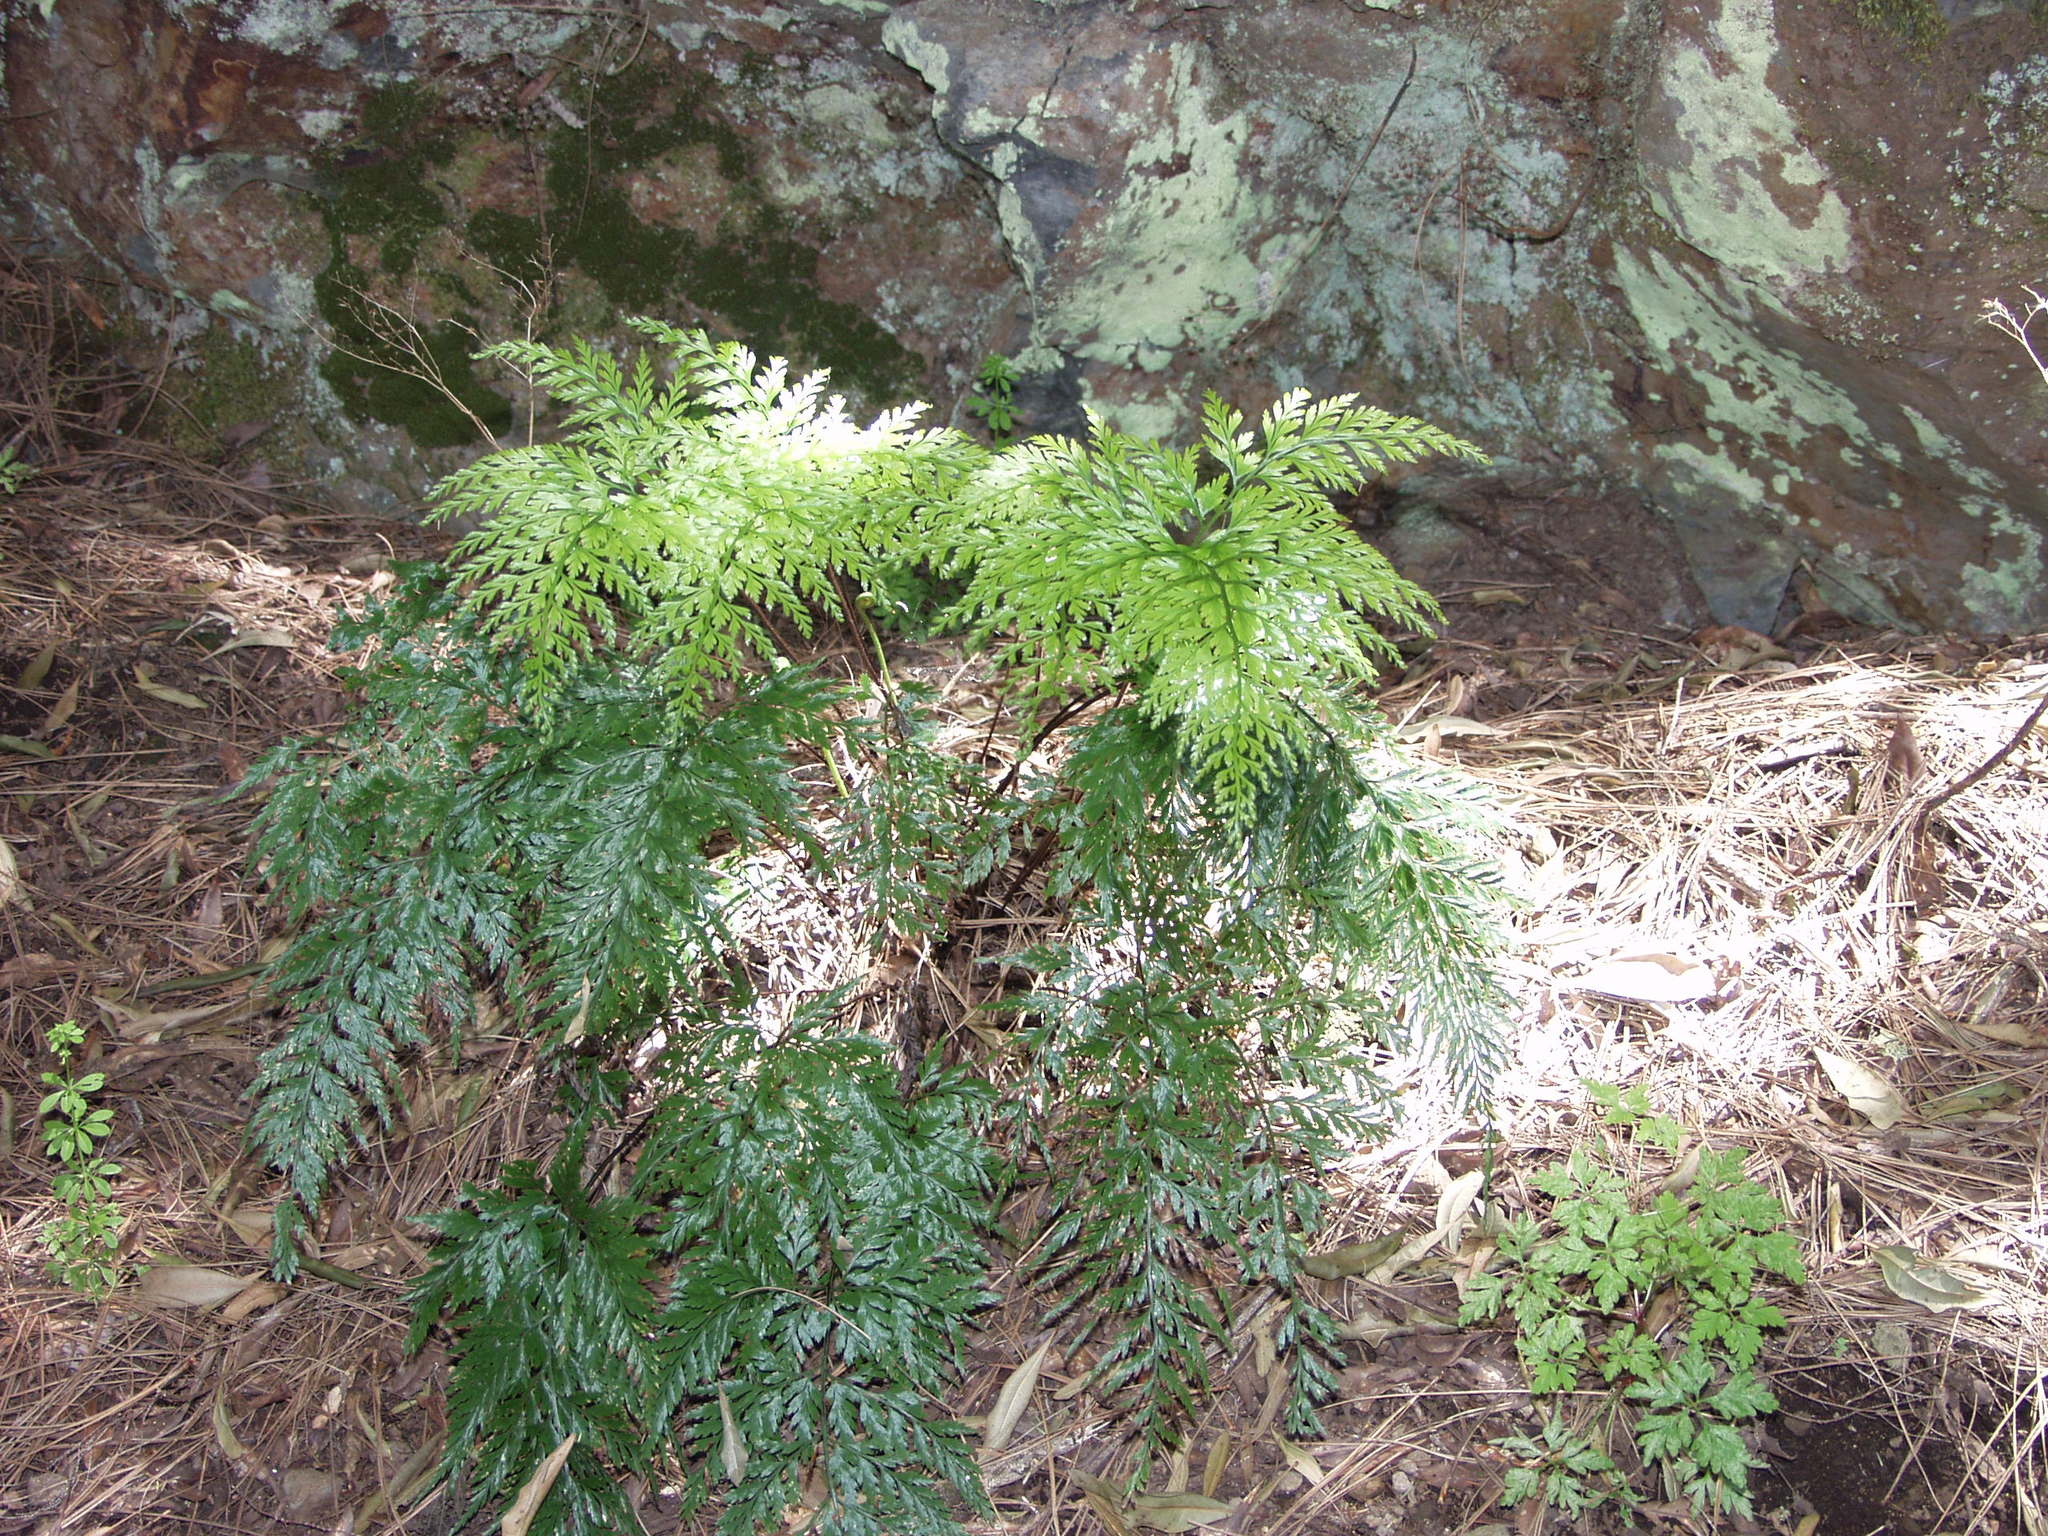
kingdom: Plantae
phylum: Tracheophyta
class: Polypodiopsida
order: Polypodiales
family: Aspleniaceae
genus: Asplenium
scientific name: Asplenium onopteris
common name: Irish spleenwort
